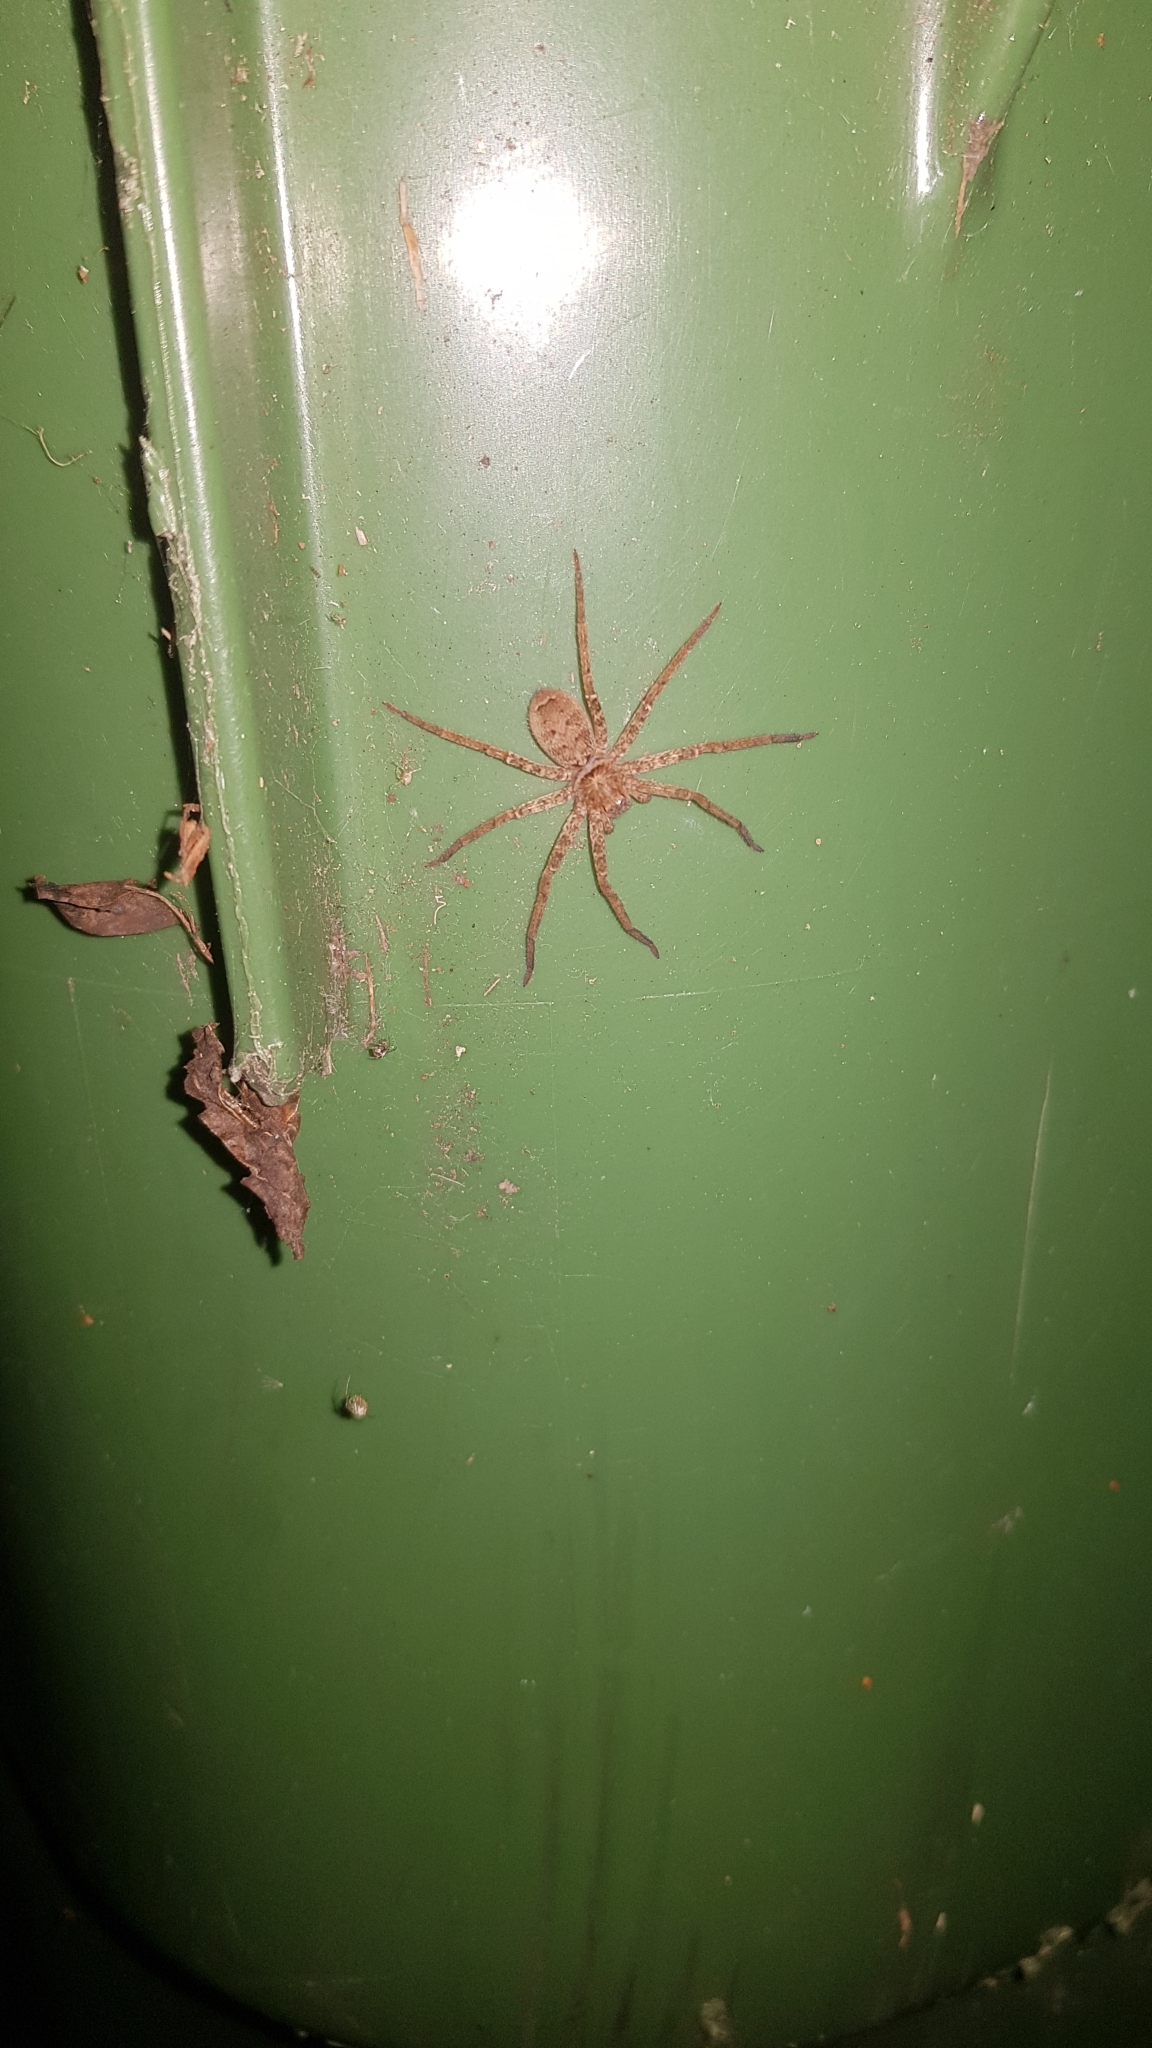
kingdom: Animalia
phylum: Arthropoda
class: Arachnida
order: Araneae
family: Sparassidae
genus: Heteropoda
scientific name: Heteropoda jugulans
